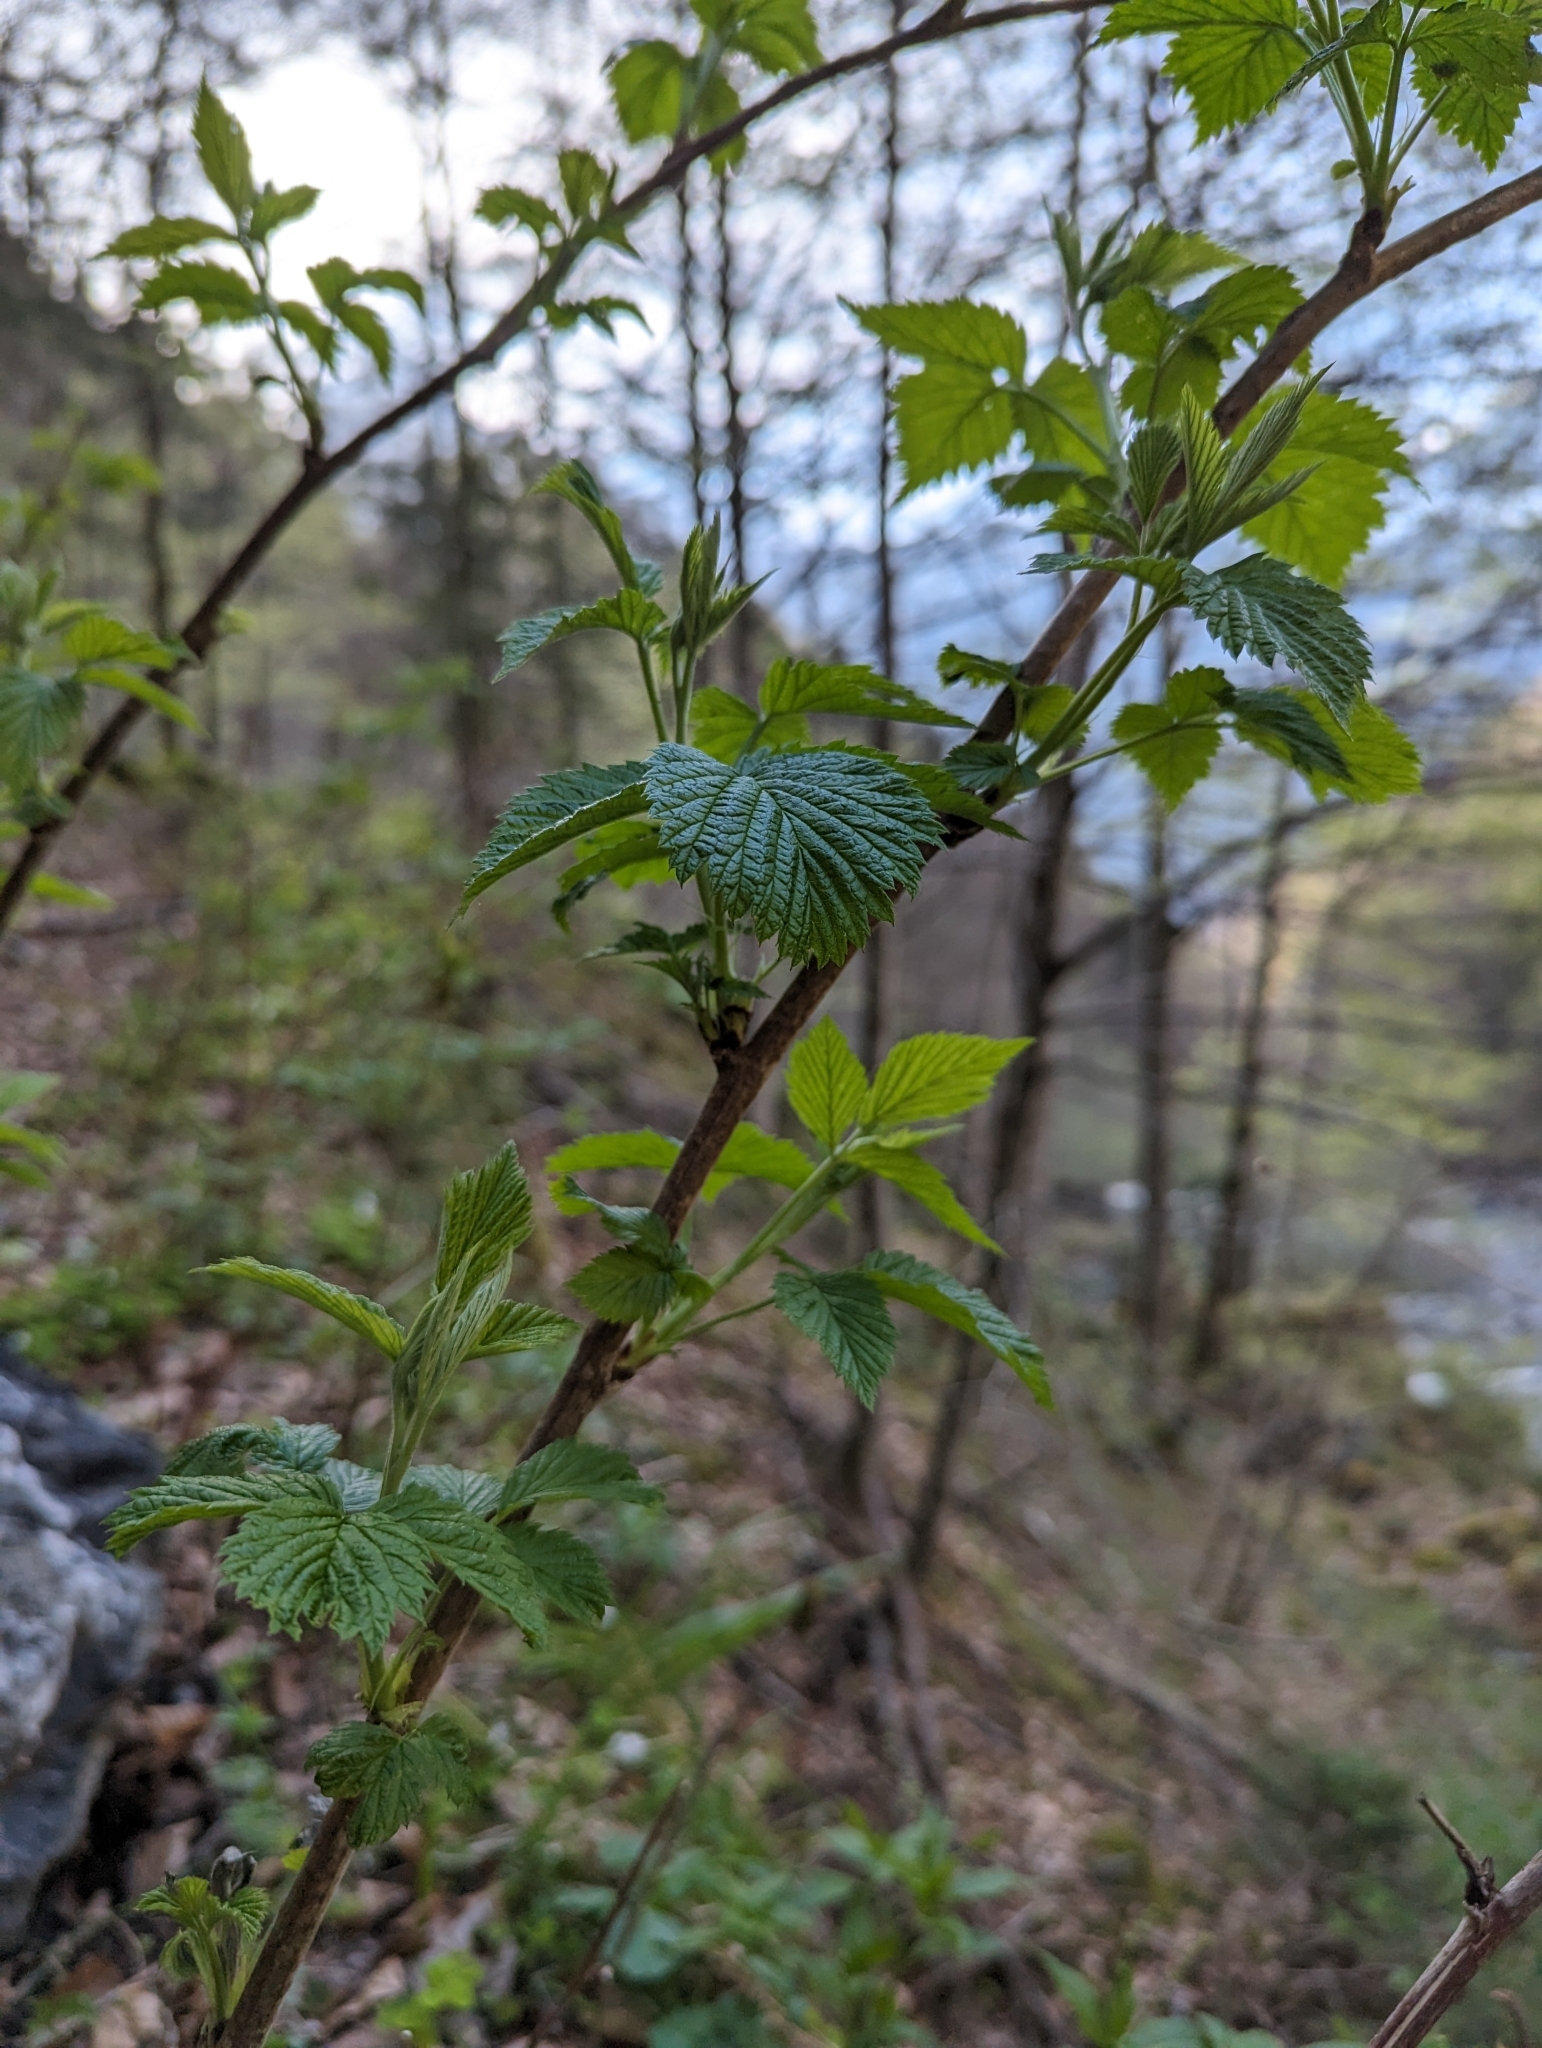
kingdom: Plantae
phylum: Tracheophyta
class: Magnoliopsida
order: Rosales
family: Rosaceae
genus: Rubus
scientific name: Rubus idaeus
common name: Raspberry
